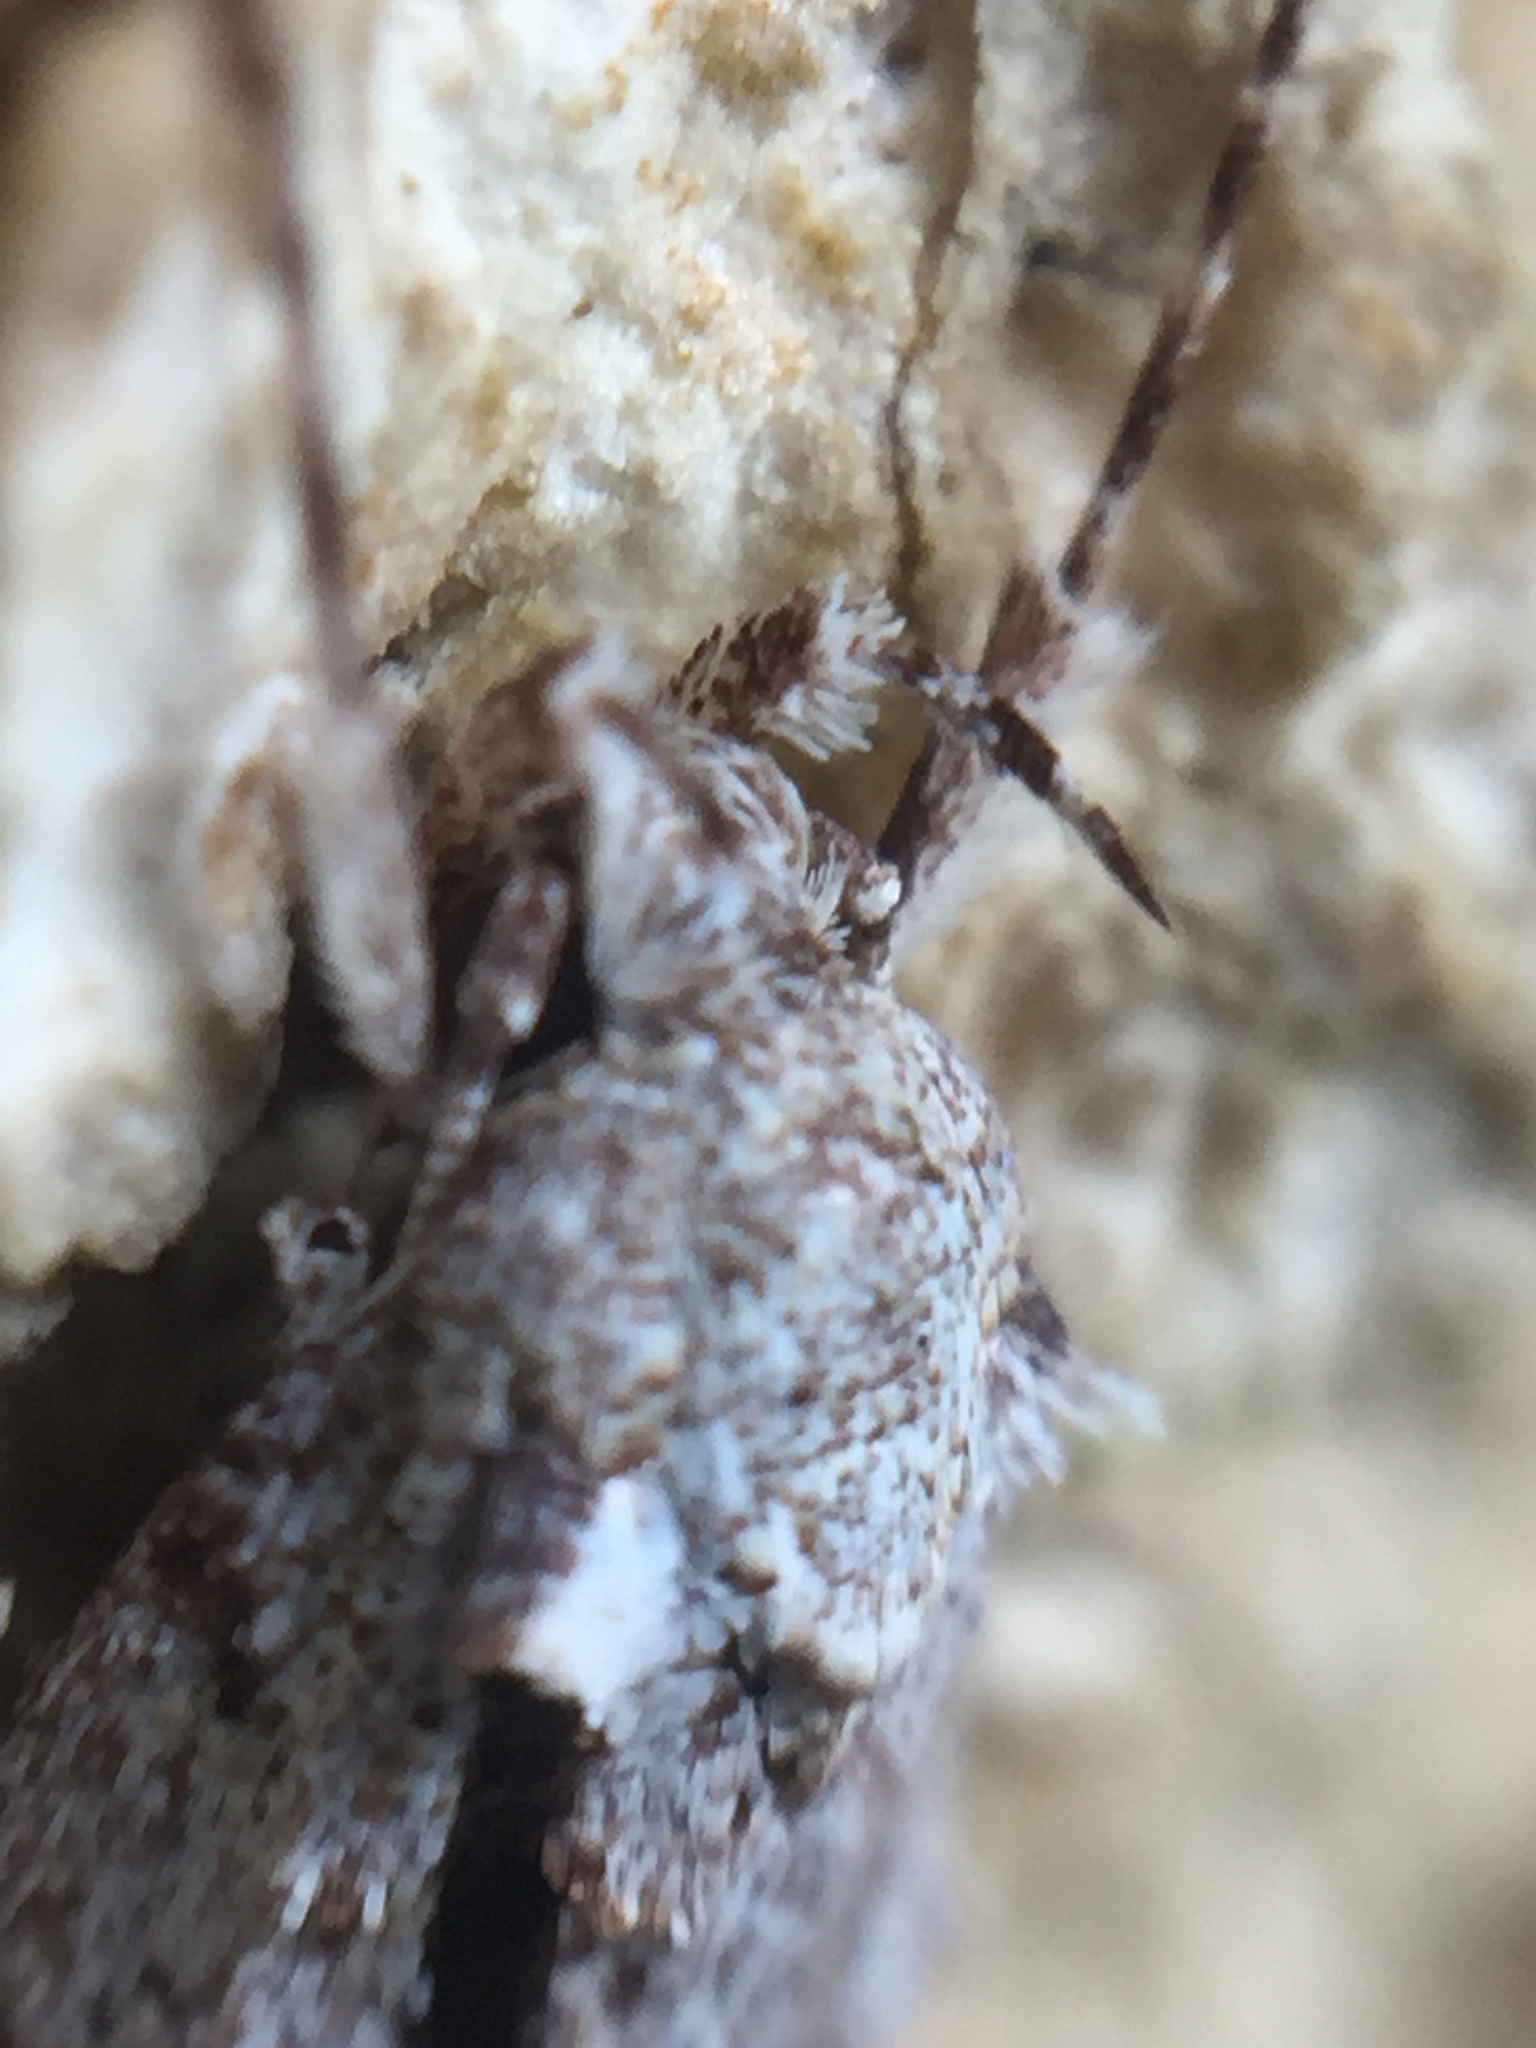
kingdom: Animalia
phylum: Arthropoda
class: Insecta
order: Lepidoptera
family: Oecophoridae
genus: Izatha
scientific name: Izatha attactella
